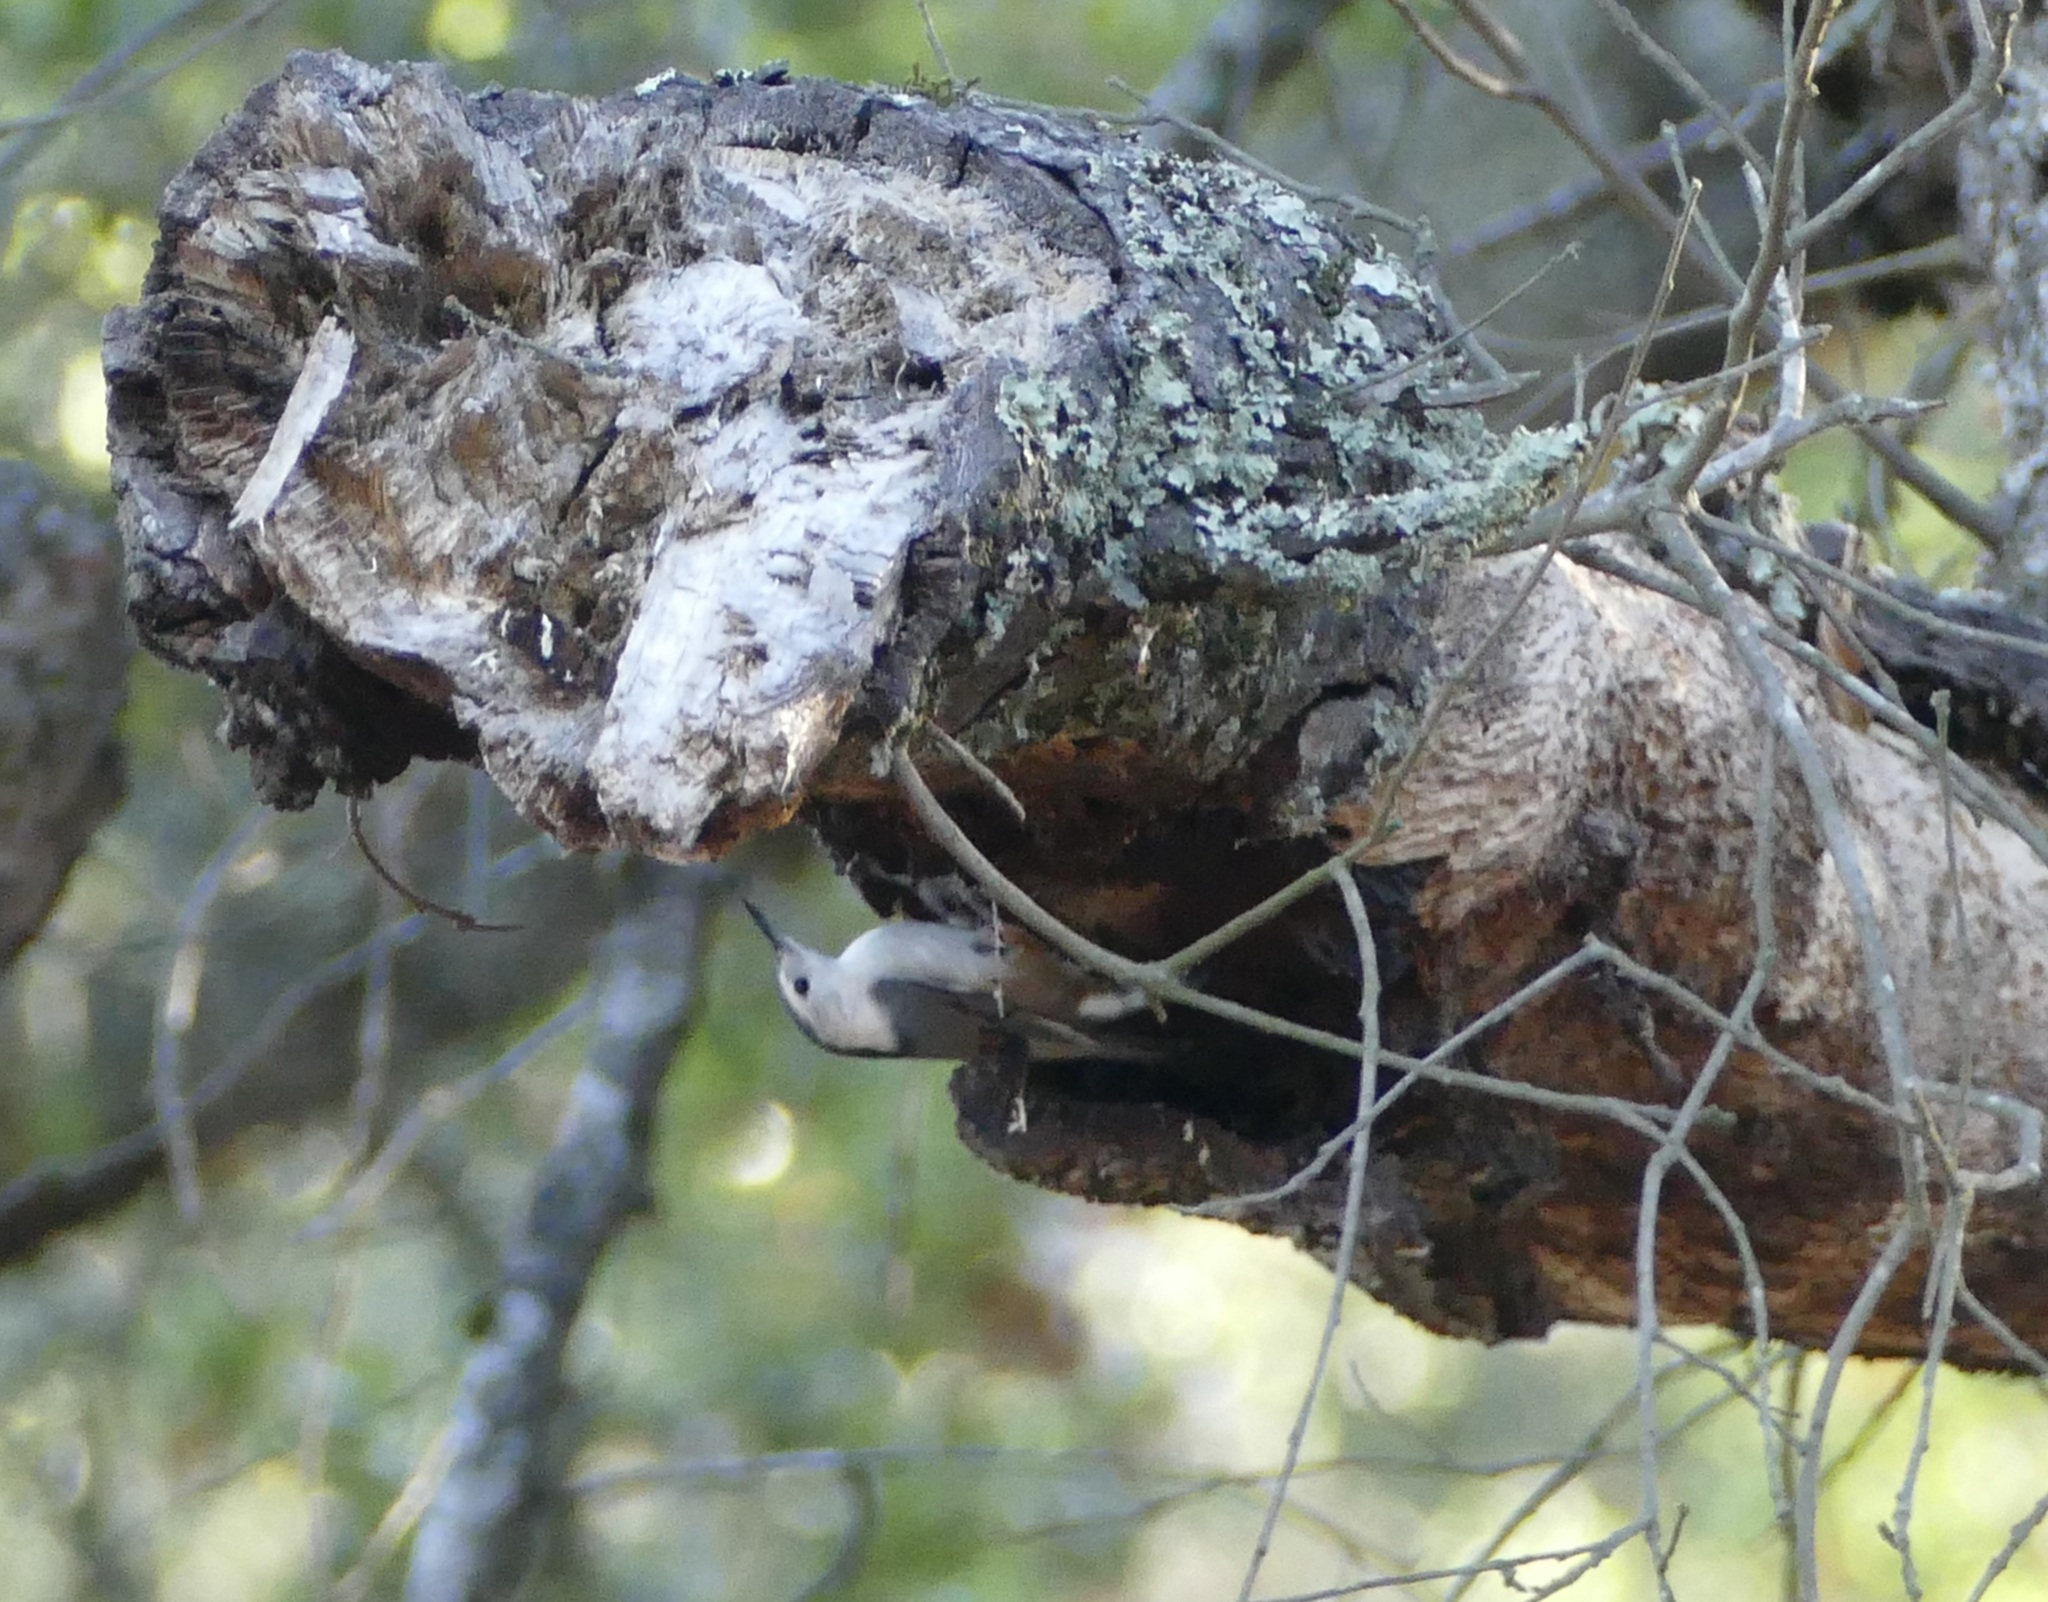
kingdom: Animalia
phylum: Chordata
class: Aves
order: Passeriformes
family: Sittidae
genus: Sitta
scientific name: Sitta carolinensis
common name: White-breasted nuthatch
